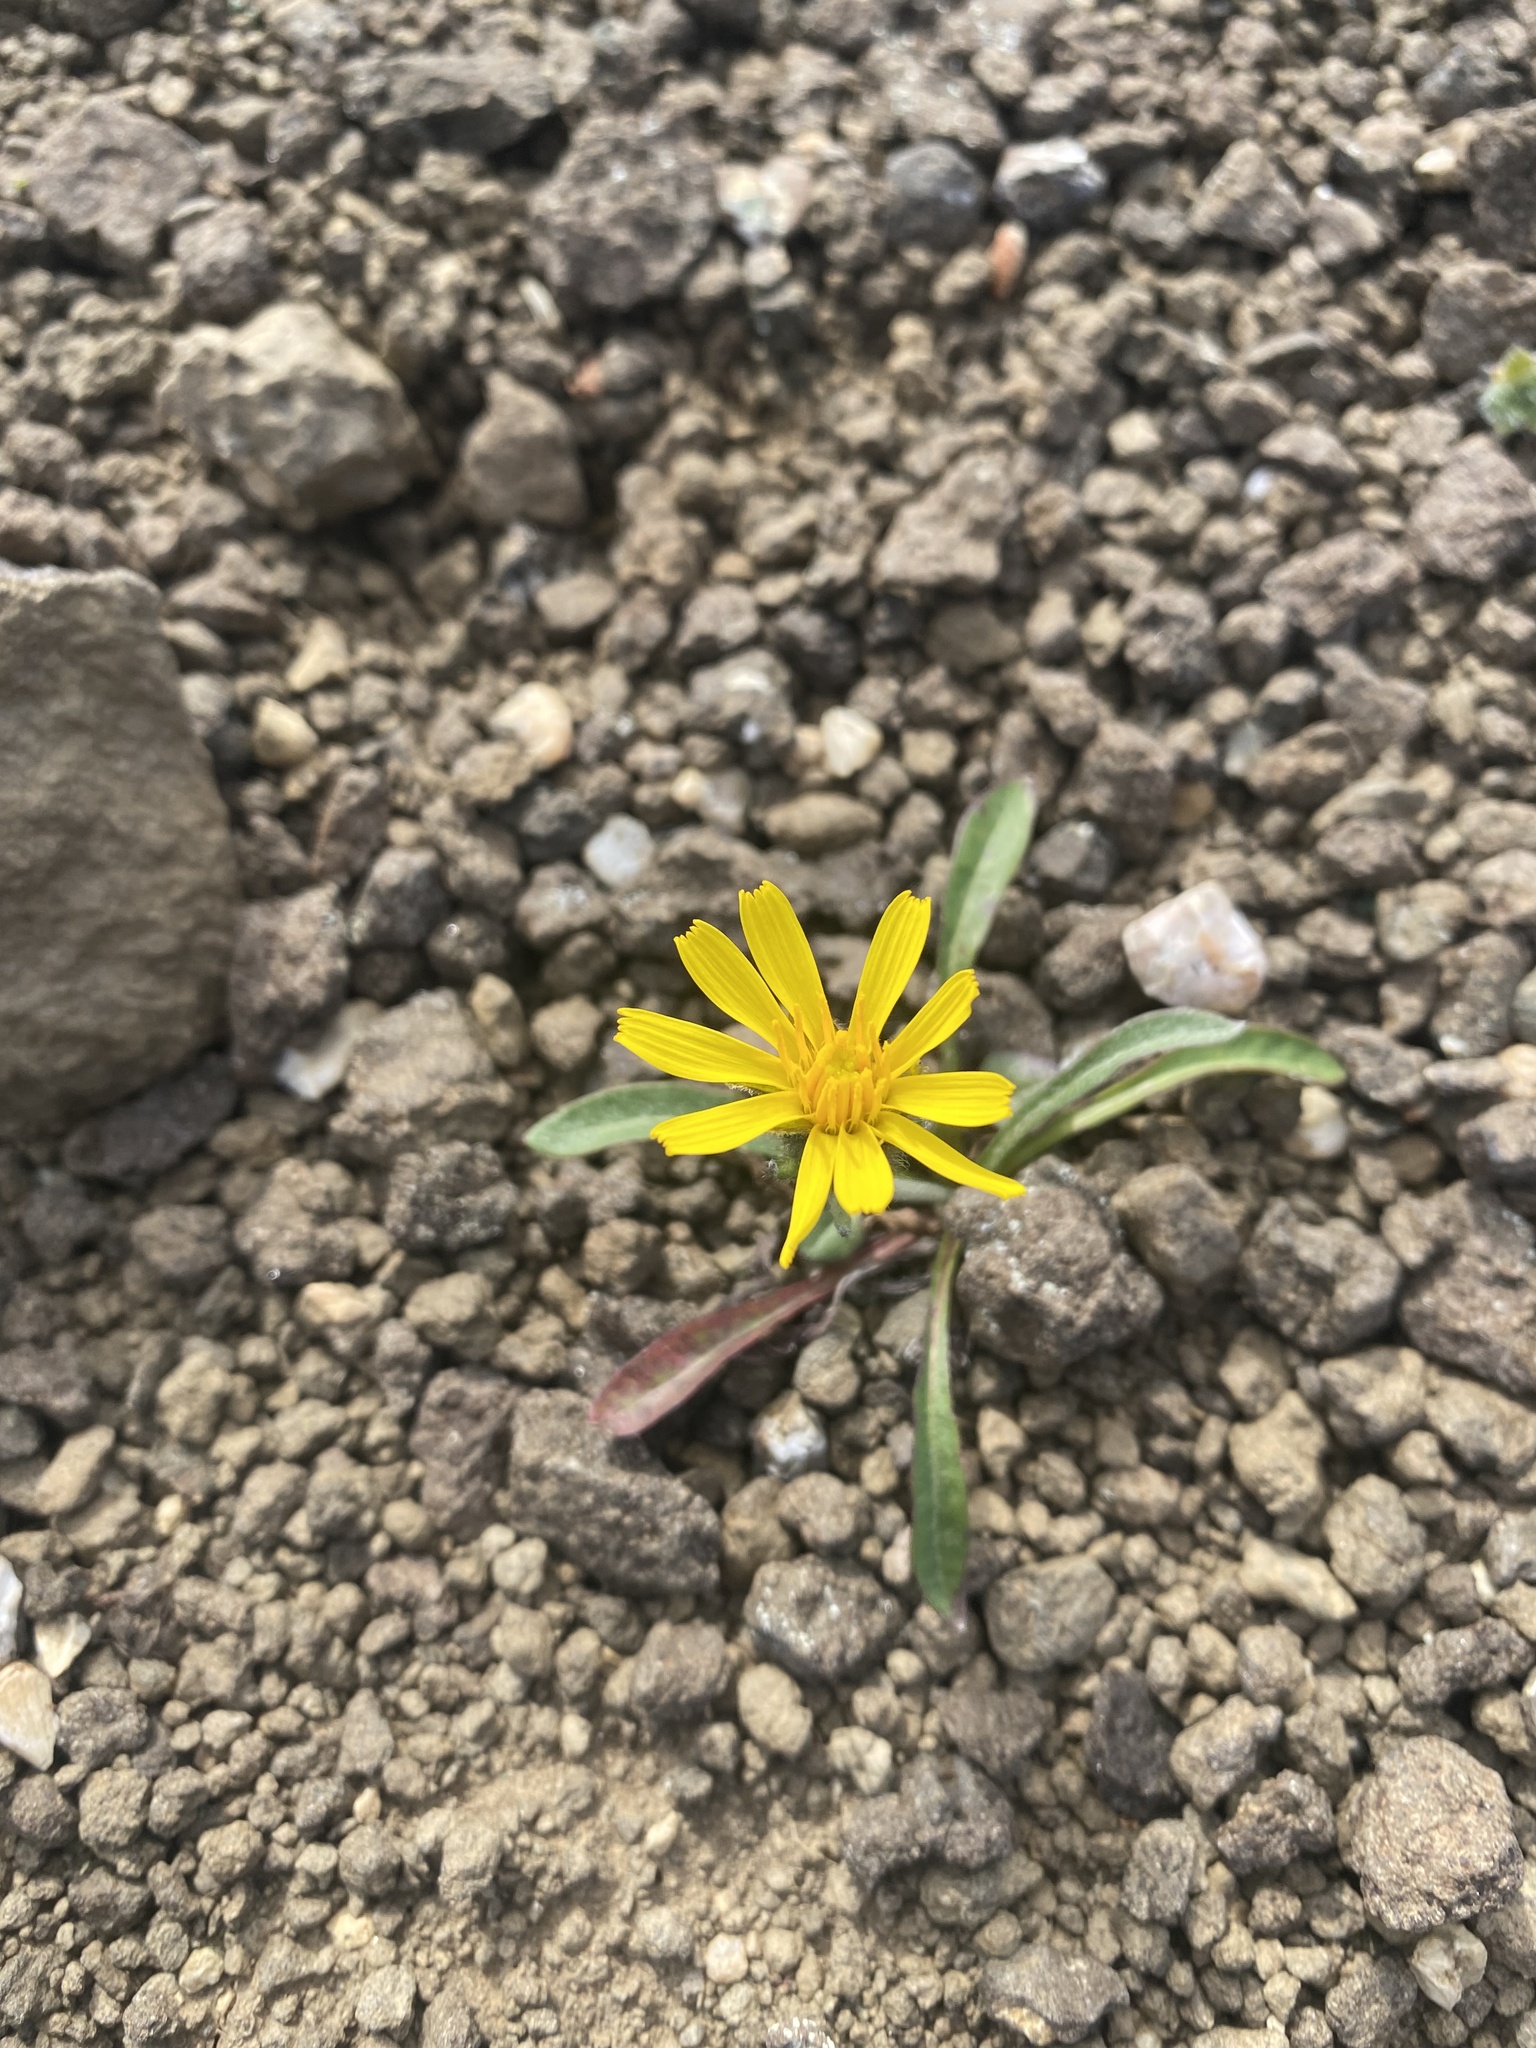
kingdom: Plantae
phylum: Tracheophyta
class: Magnoliopsida
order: Asterales
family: Asteraceae
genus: Crepis
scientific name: Crepis chrysantha
